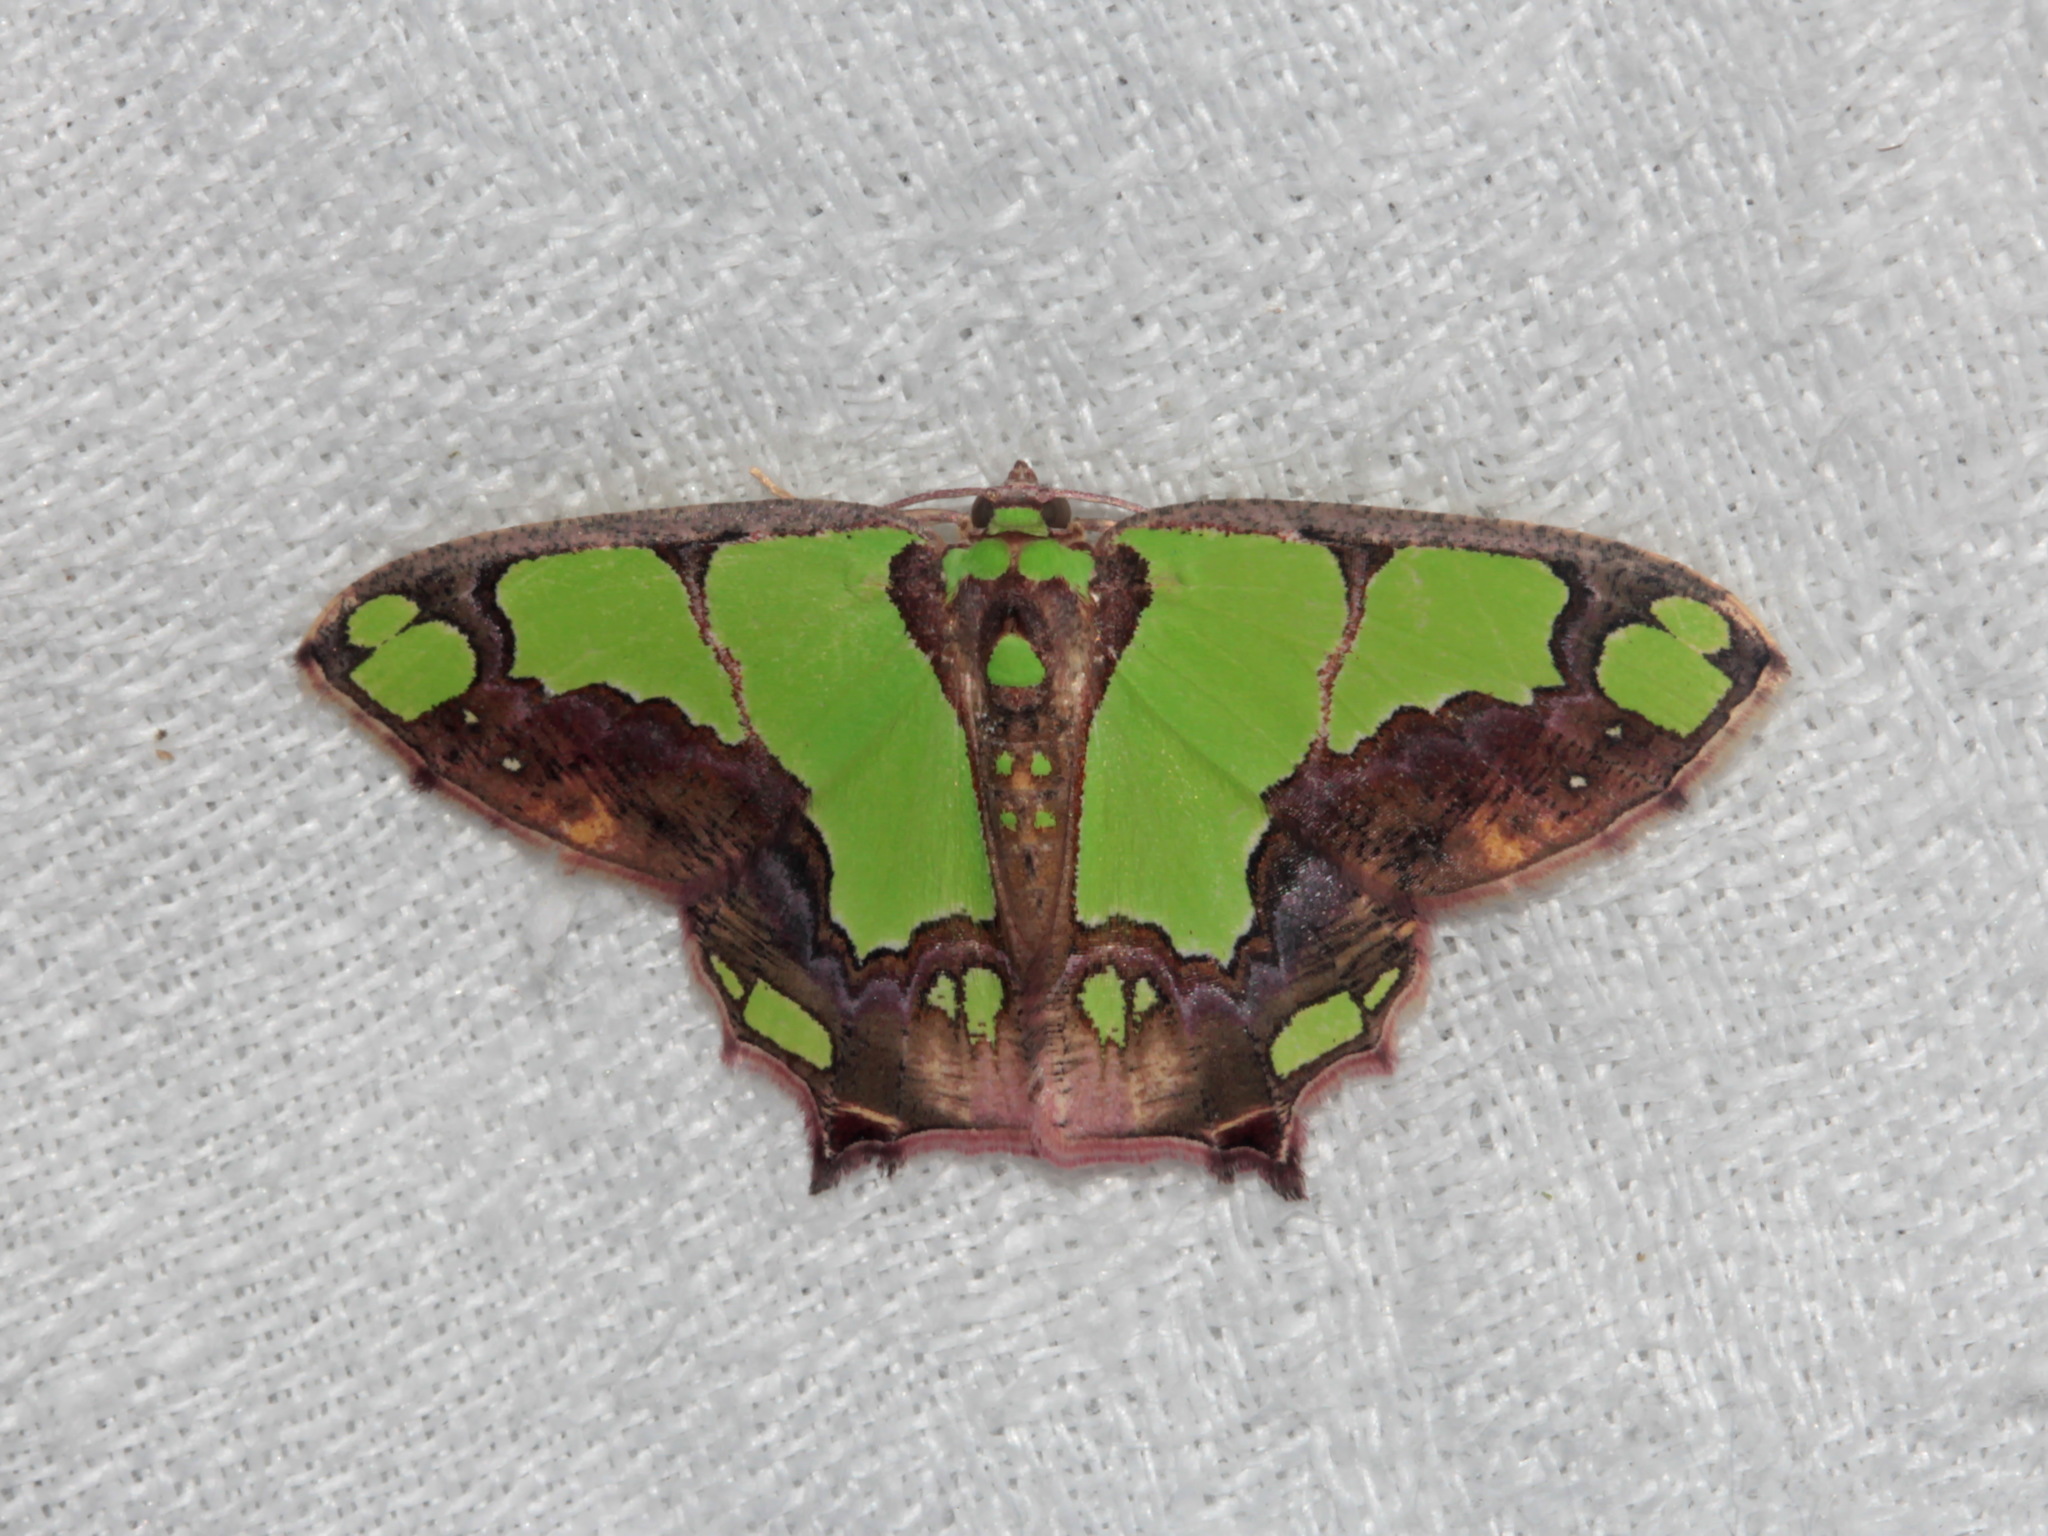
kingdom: Animalia
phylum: Arthropoda
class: Insecta
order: Lepidoptera
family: Geometridae
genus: Agathia
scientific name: Agathia arcuata
